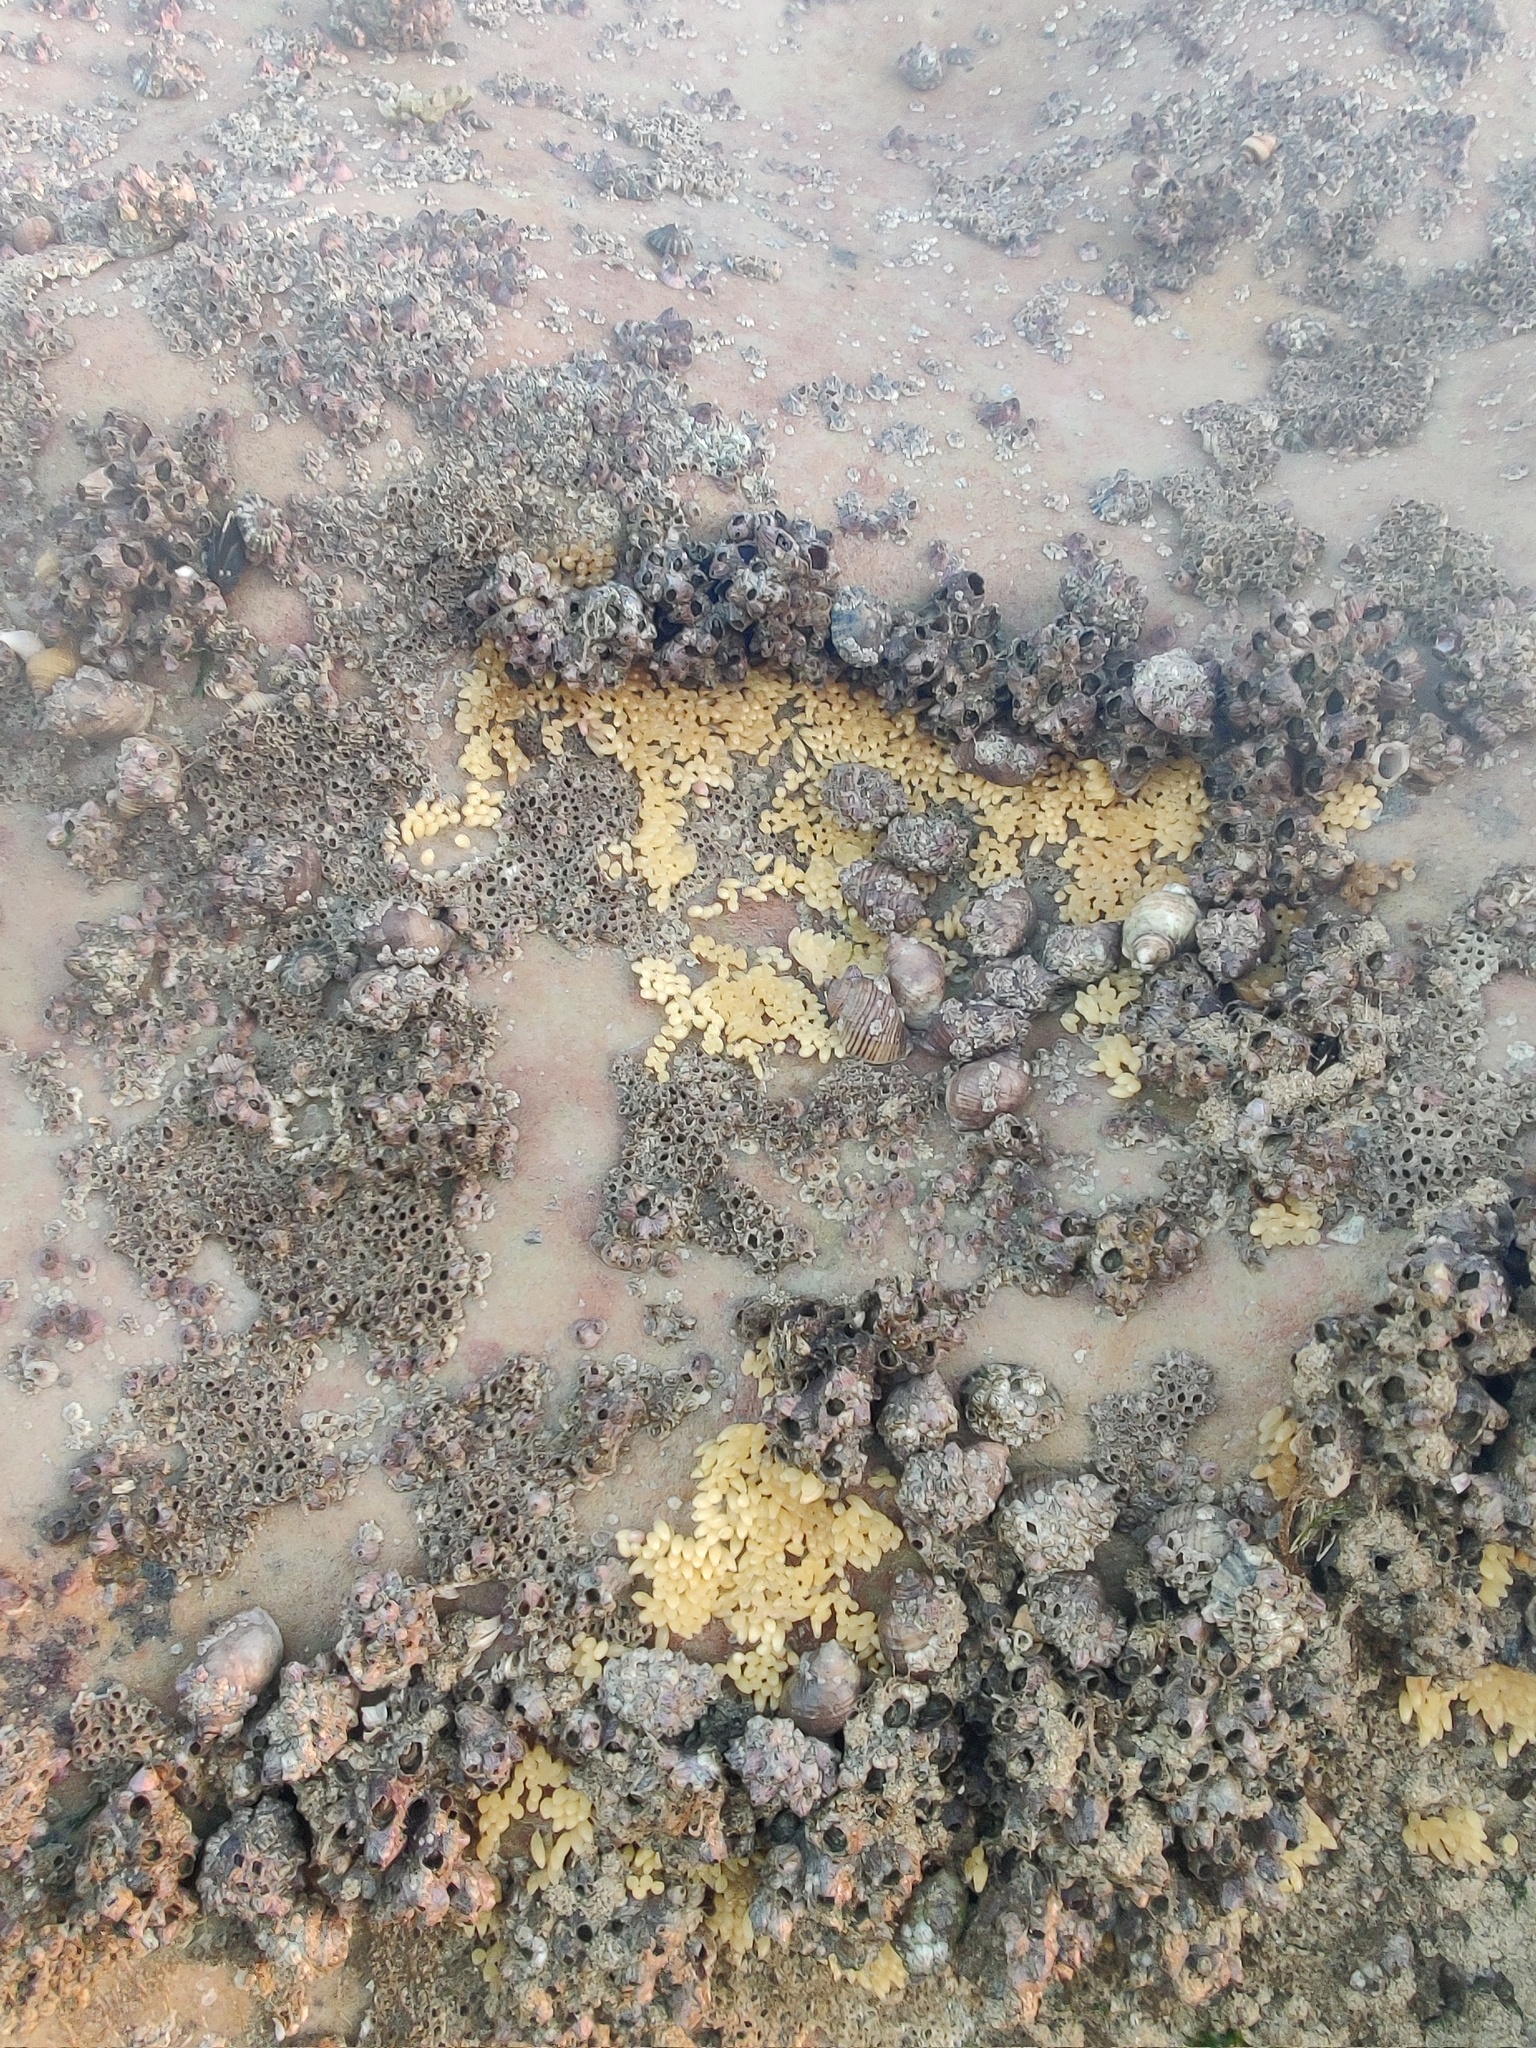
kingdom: Animalia
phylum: Mollusca
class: Gastropoda
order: Neogastropoda
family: Muricidae
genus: Nucella
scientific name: Nucella lapillus
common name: Dog whelk
